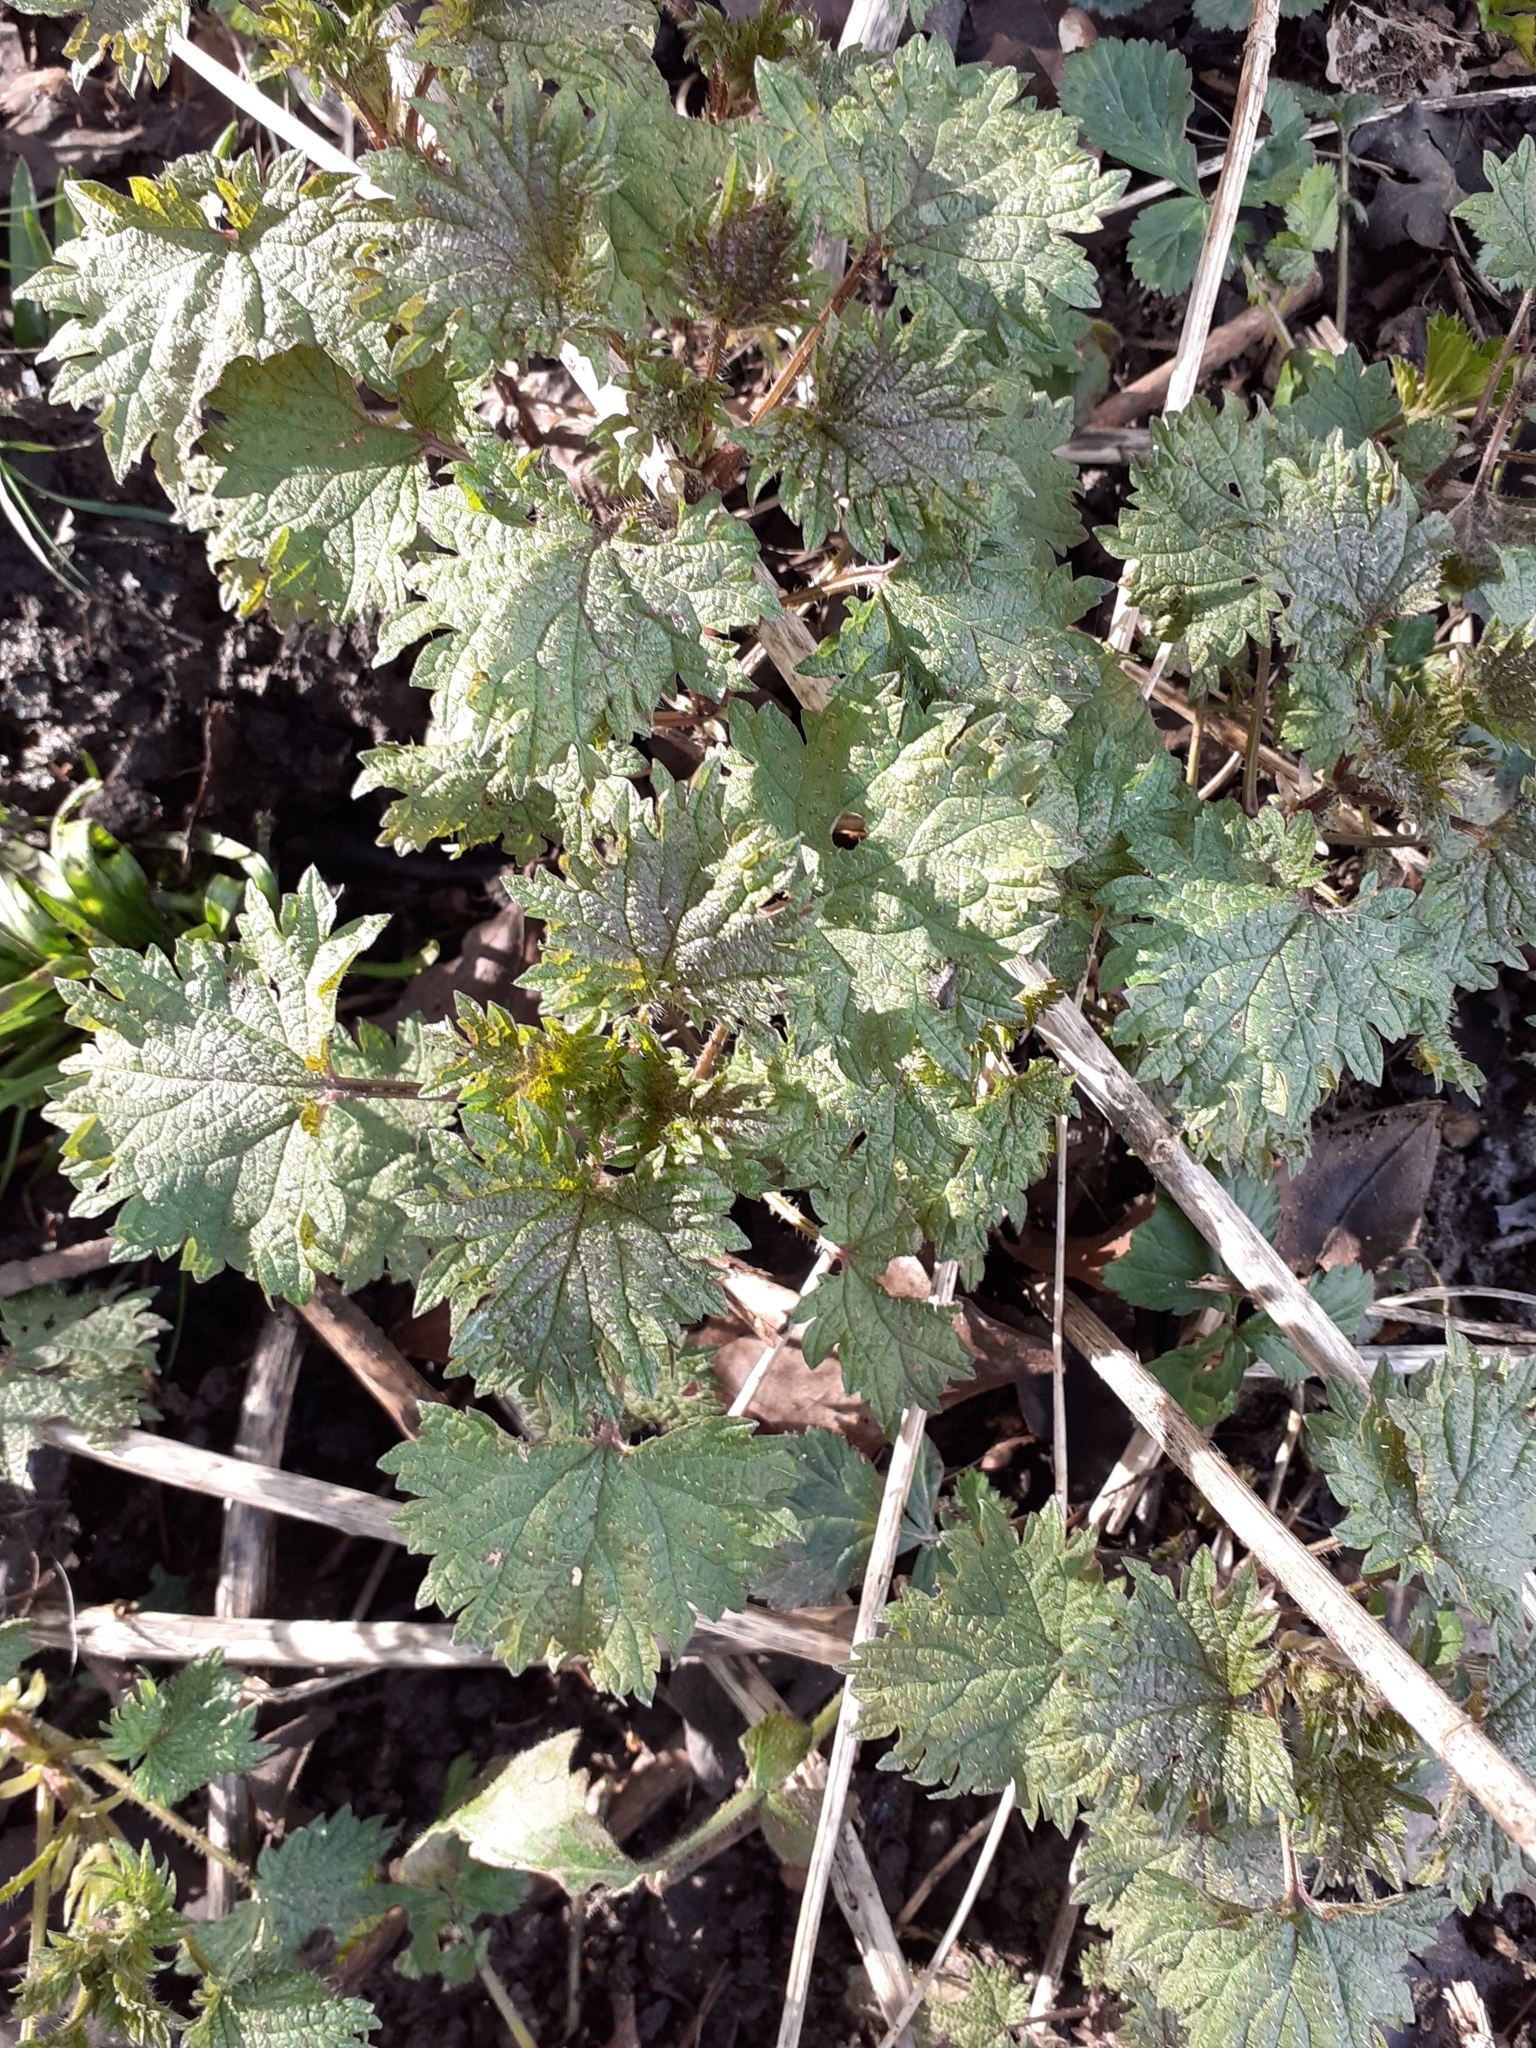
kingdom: Plantae
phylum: Tracheophyta
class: Magnoliopsida
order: Rosales
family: Urticaceae
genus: Urtica
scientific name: Urtica dioica
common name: Common nettle
